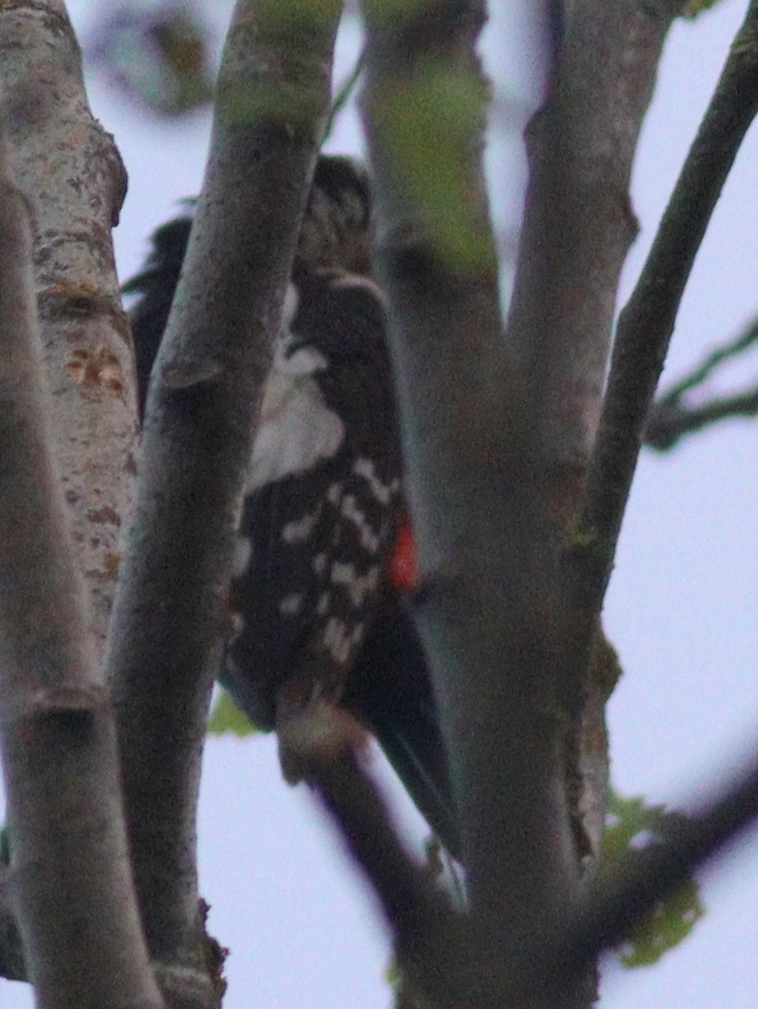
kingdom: Animalia
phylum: Chordata
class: Aves
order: Piciformes
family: Picidae
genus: Dendrocopos
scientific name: Dendrocopos major
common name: Great spotted woodpecker
